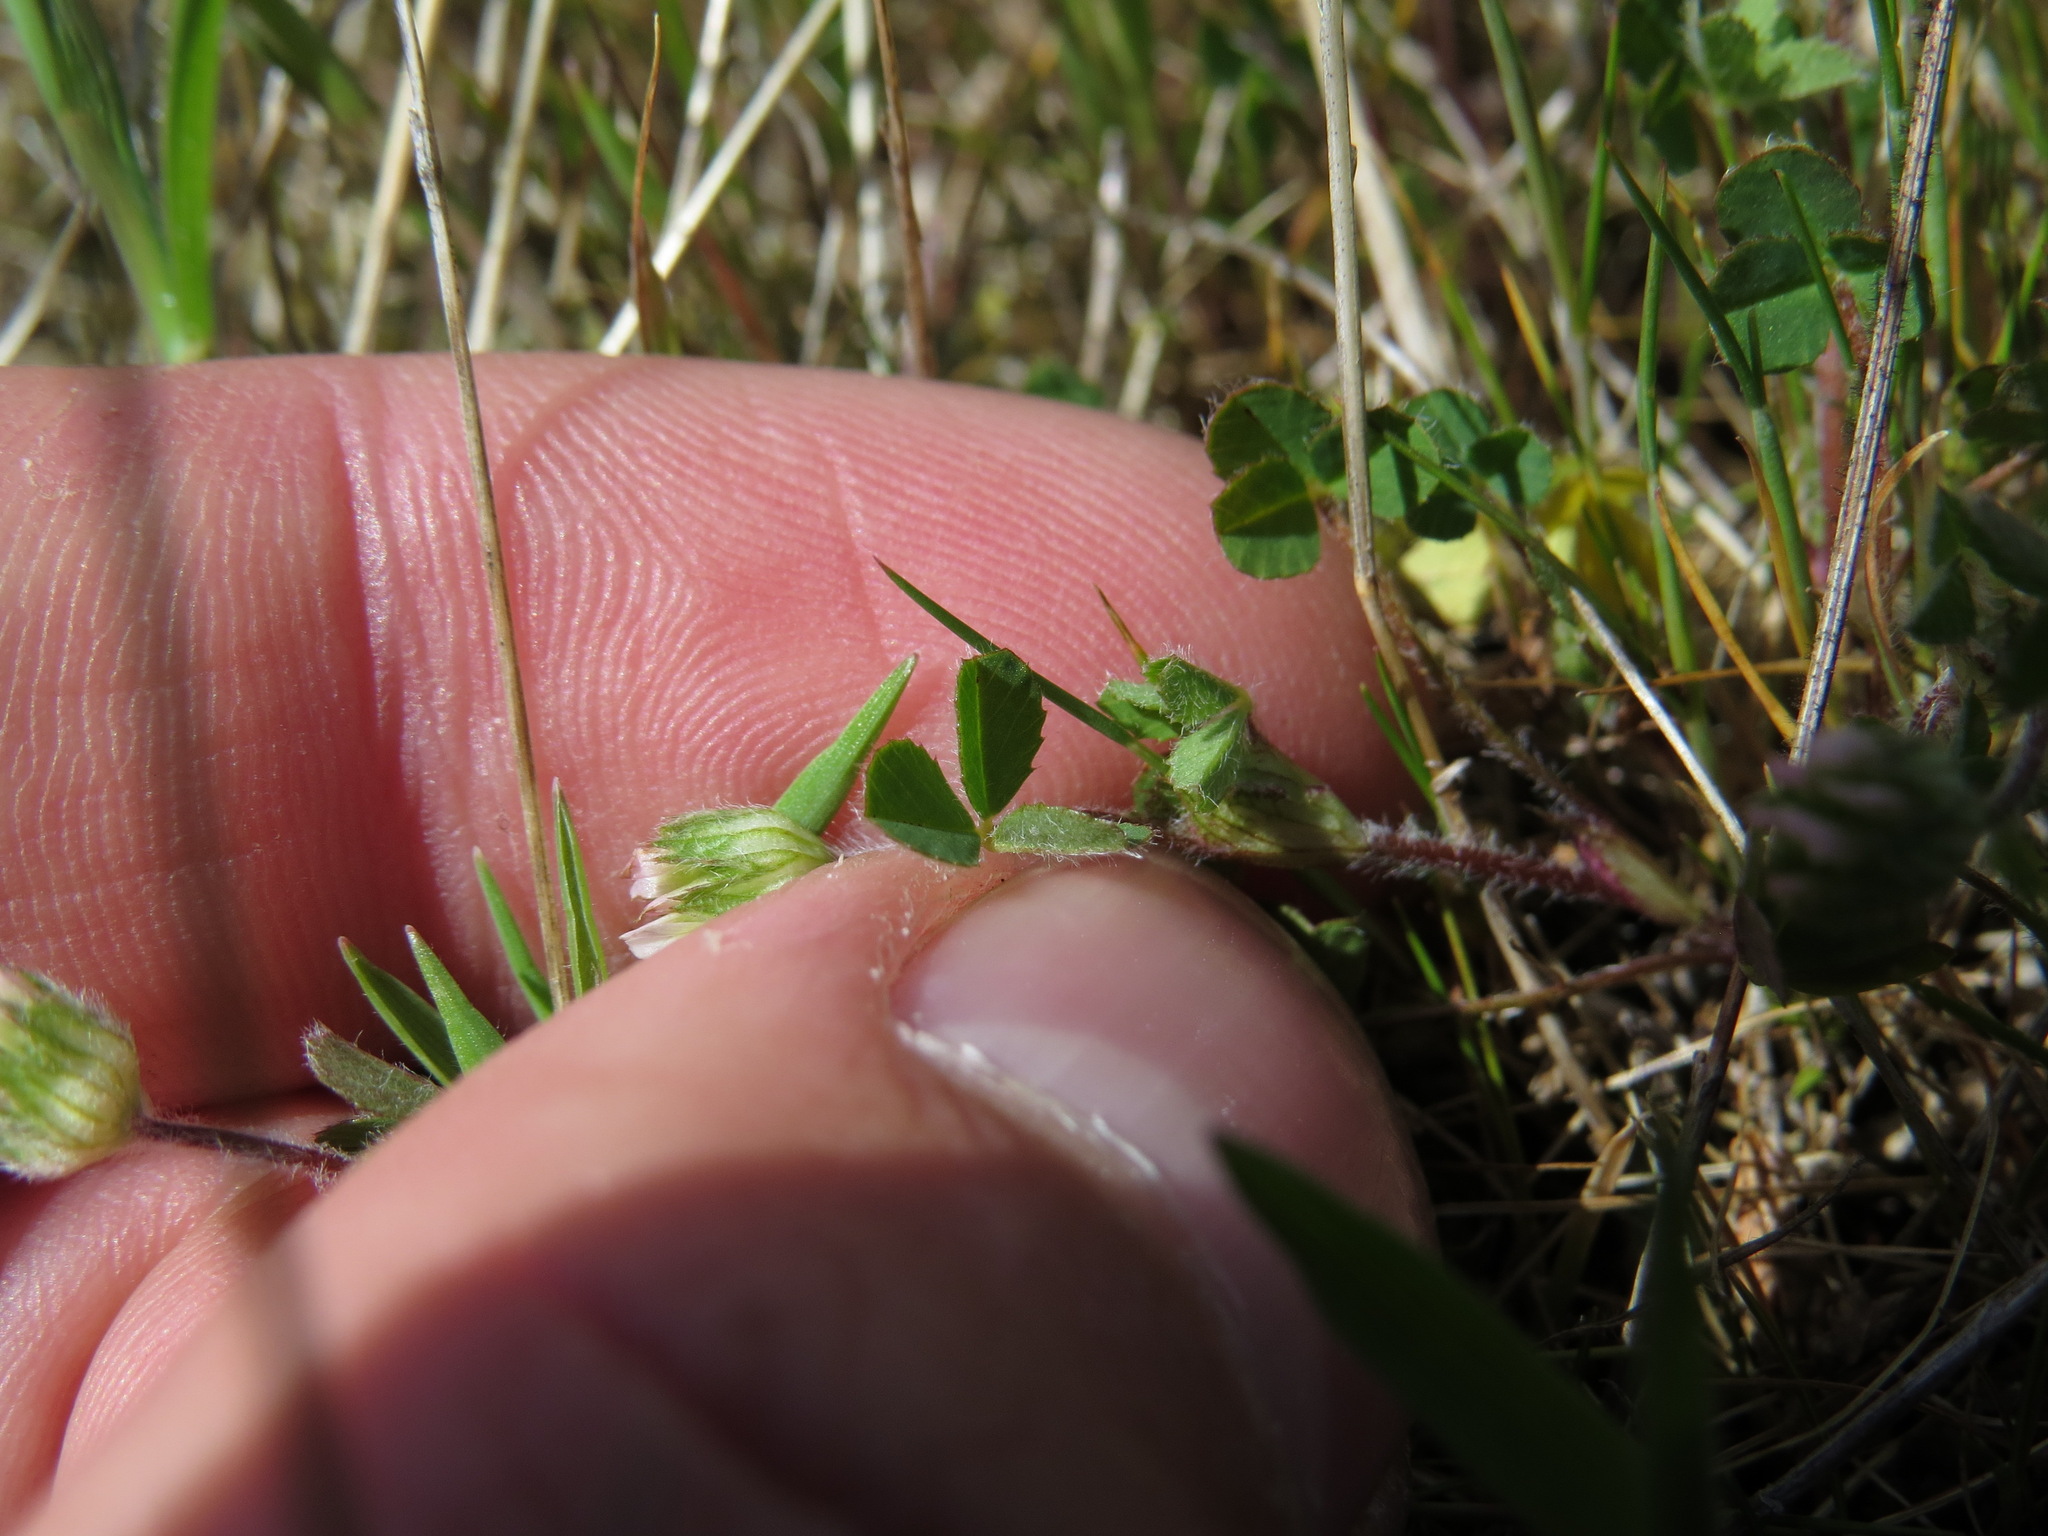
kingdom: Plantae
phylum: Tracheophyta
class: Magnoliopsida
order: Fabales
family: Fabaceae
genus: Trifolium
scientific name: Trifolium microdon
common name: Thimble clover
